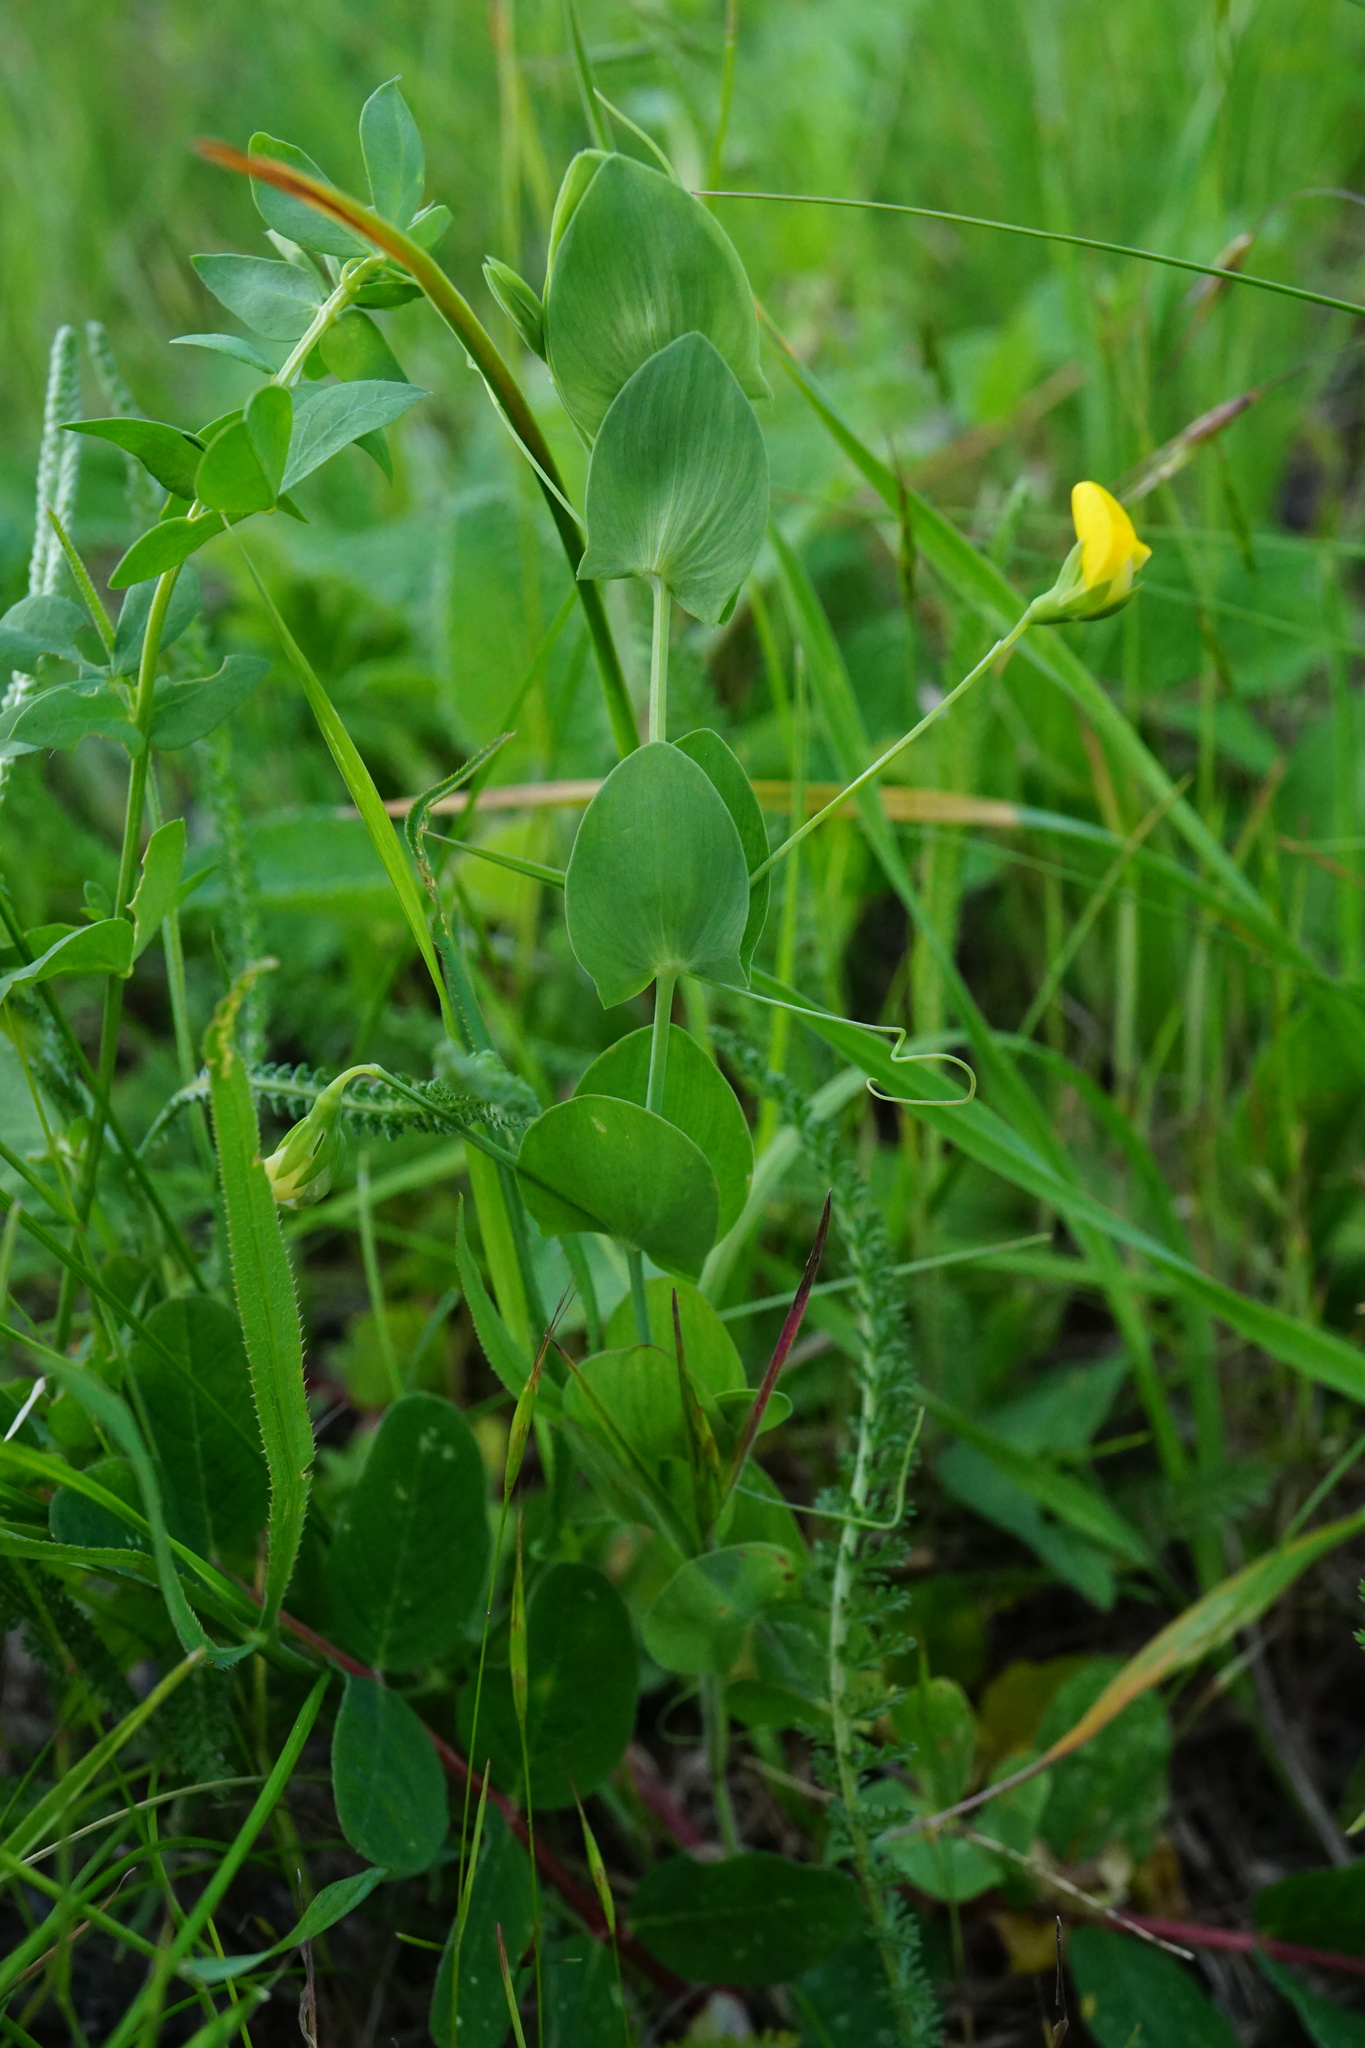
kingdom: Plantae
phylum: Tracheophyta
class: Magnoliopsida
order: Fabales
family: Fabaceae
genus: Lathyrus
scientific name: Lathyrus aphaca
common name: Yellow vetchling
